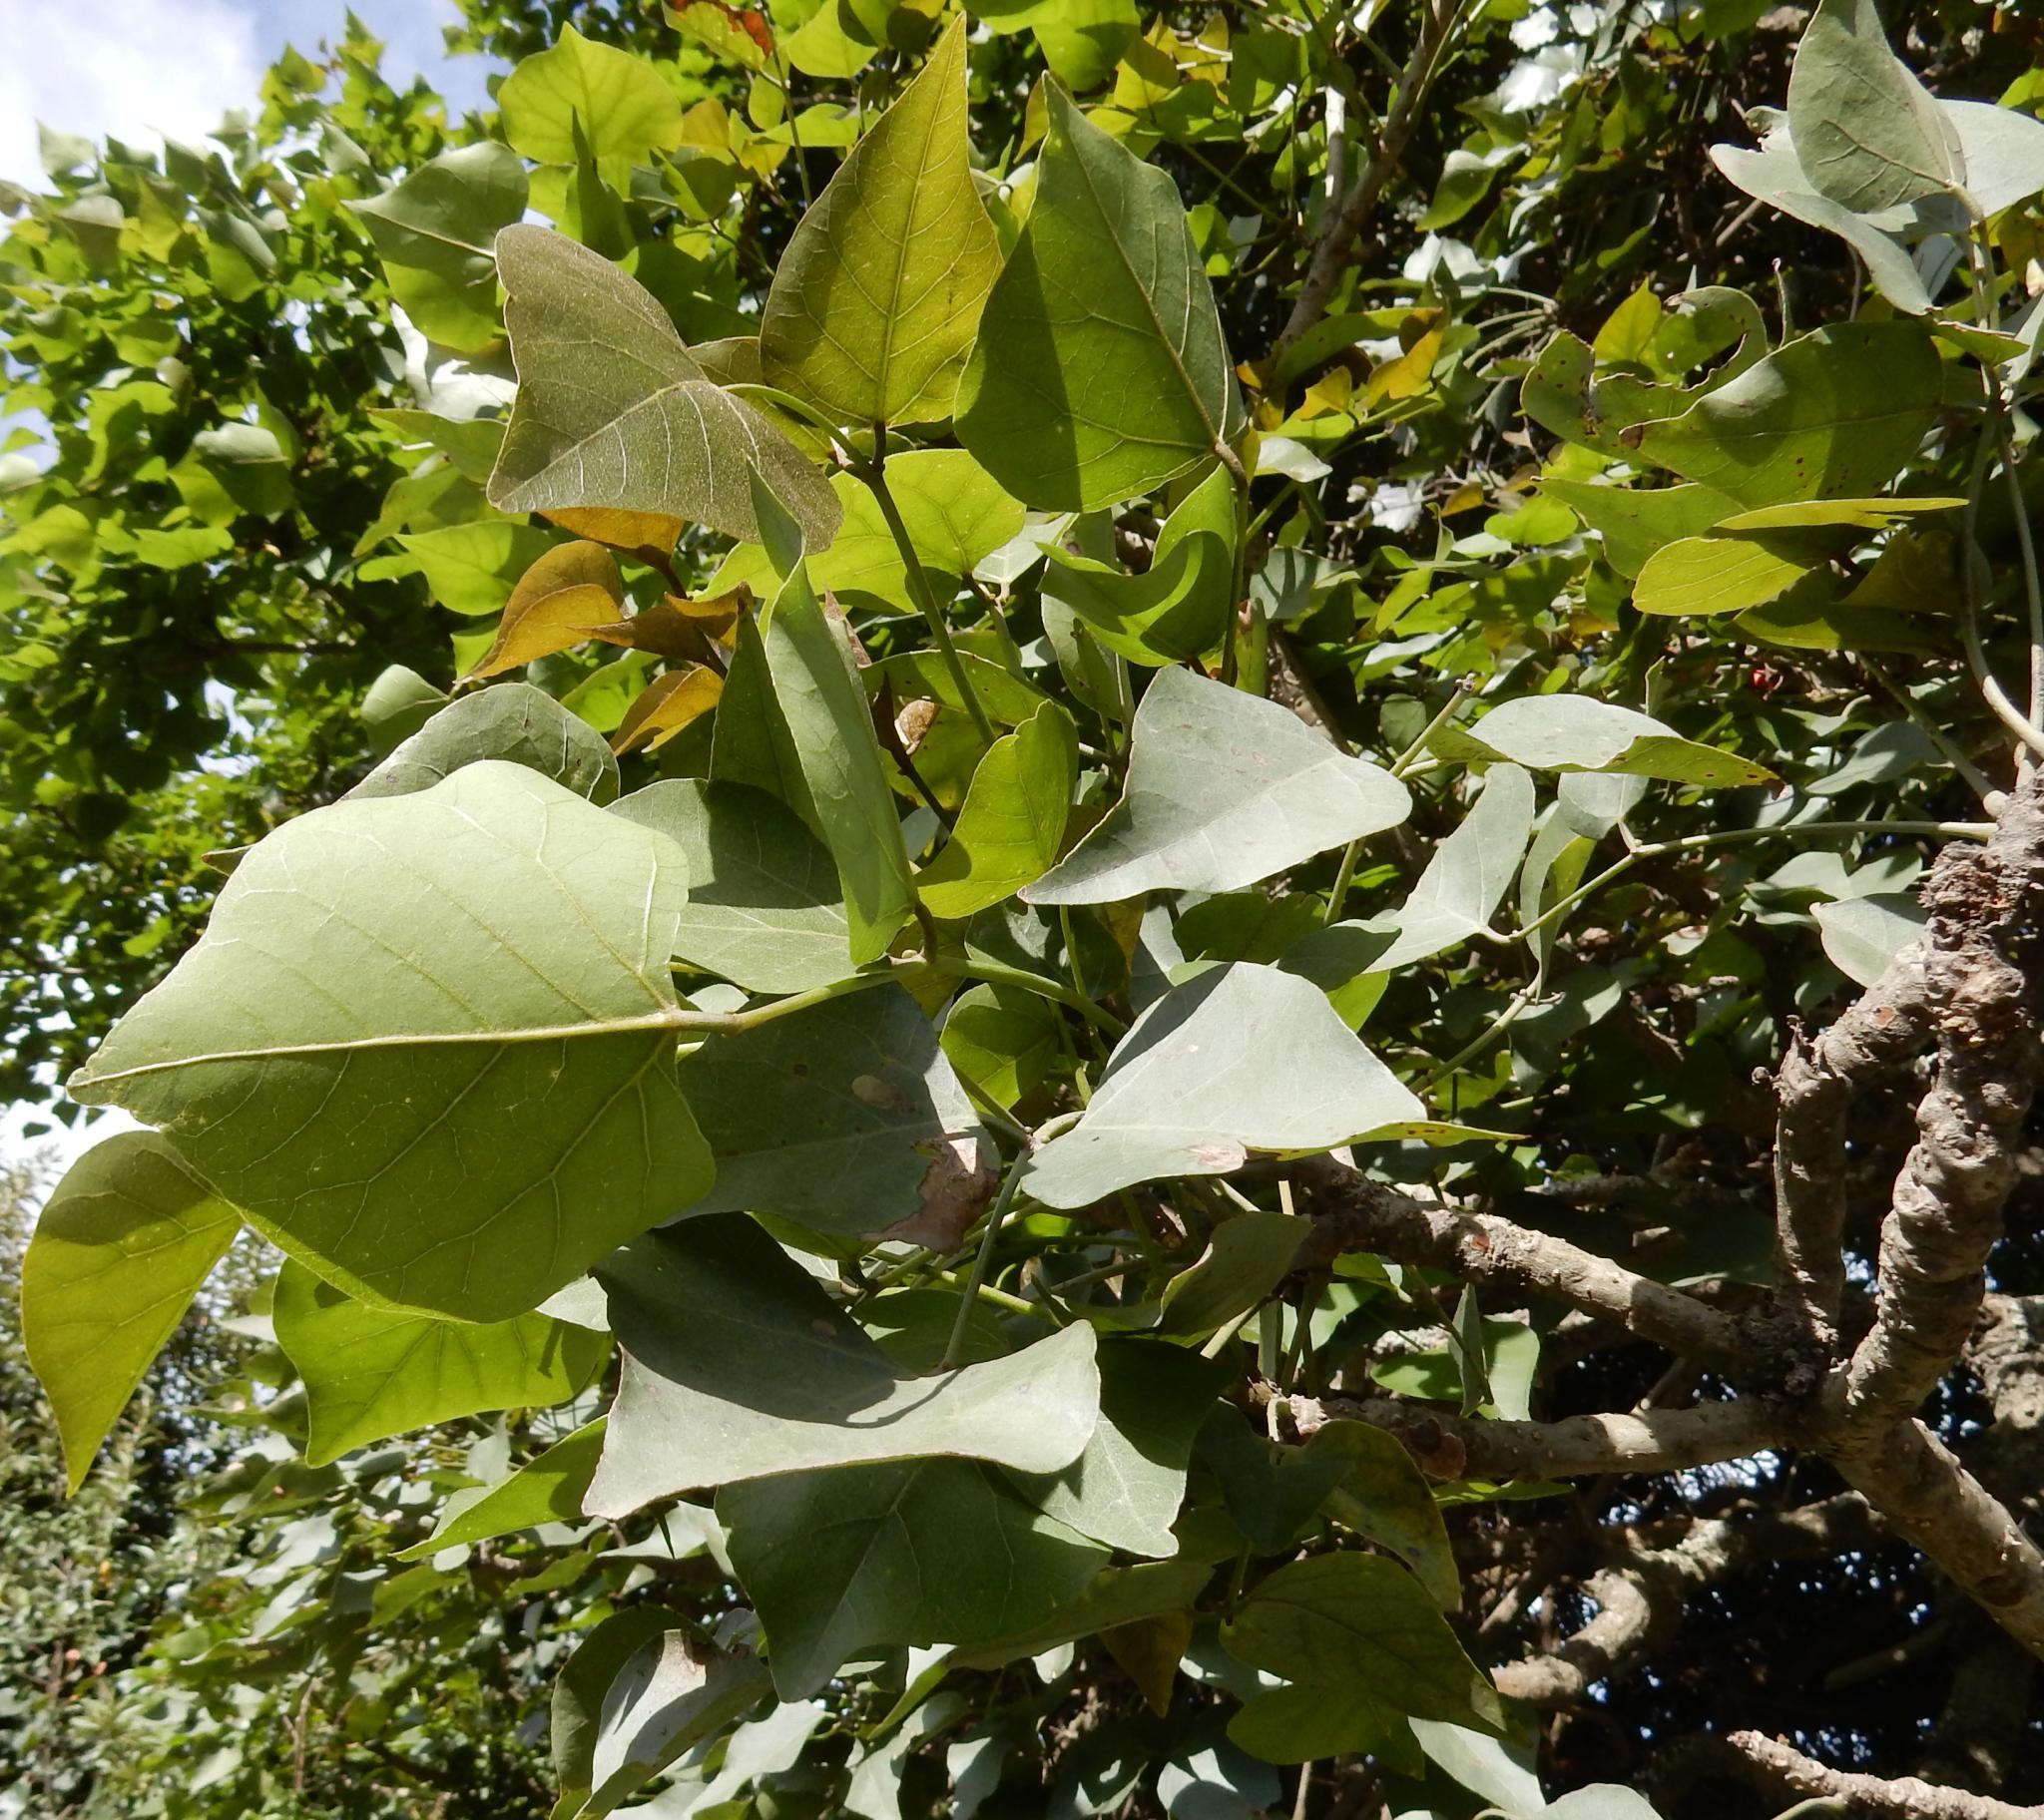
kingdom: Plantae
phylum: Tracheophyta
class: Magnoliopsida
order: Fabales
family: Fabaceae
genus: Erythrina
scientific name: Erythrina caffra
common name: Coast coral tree
